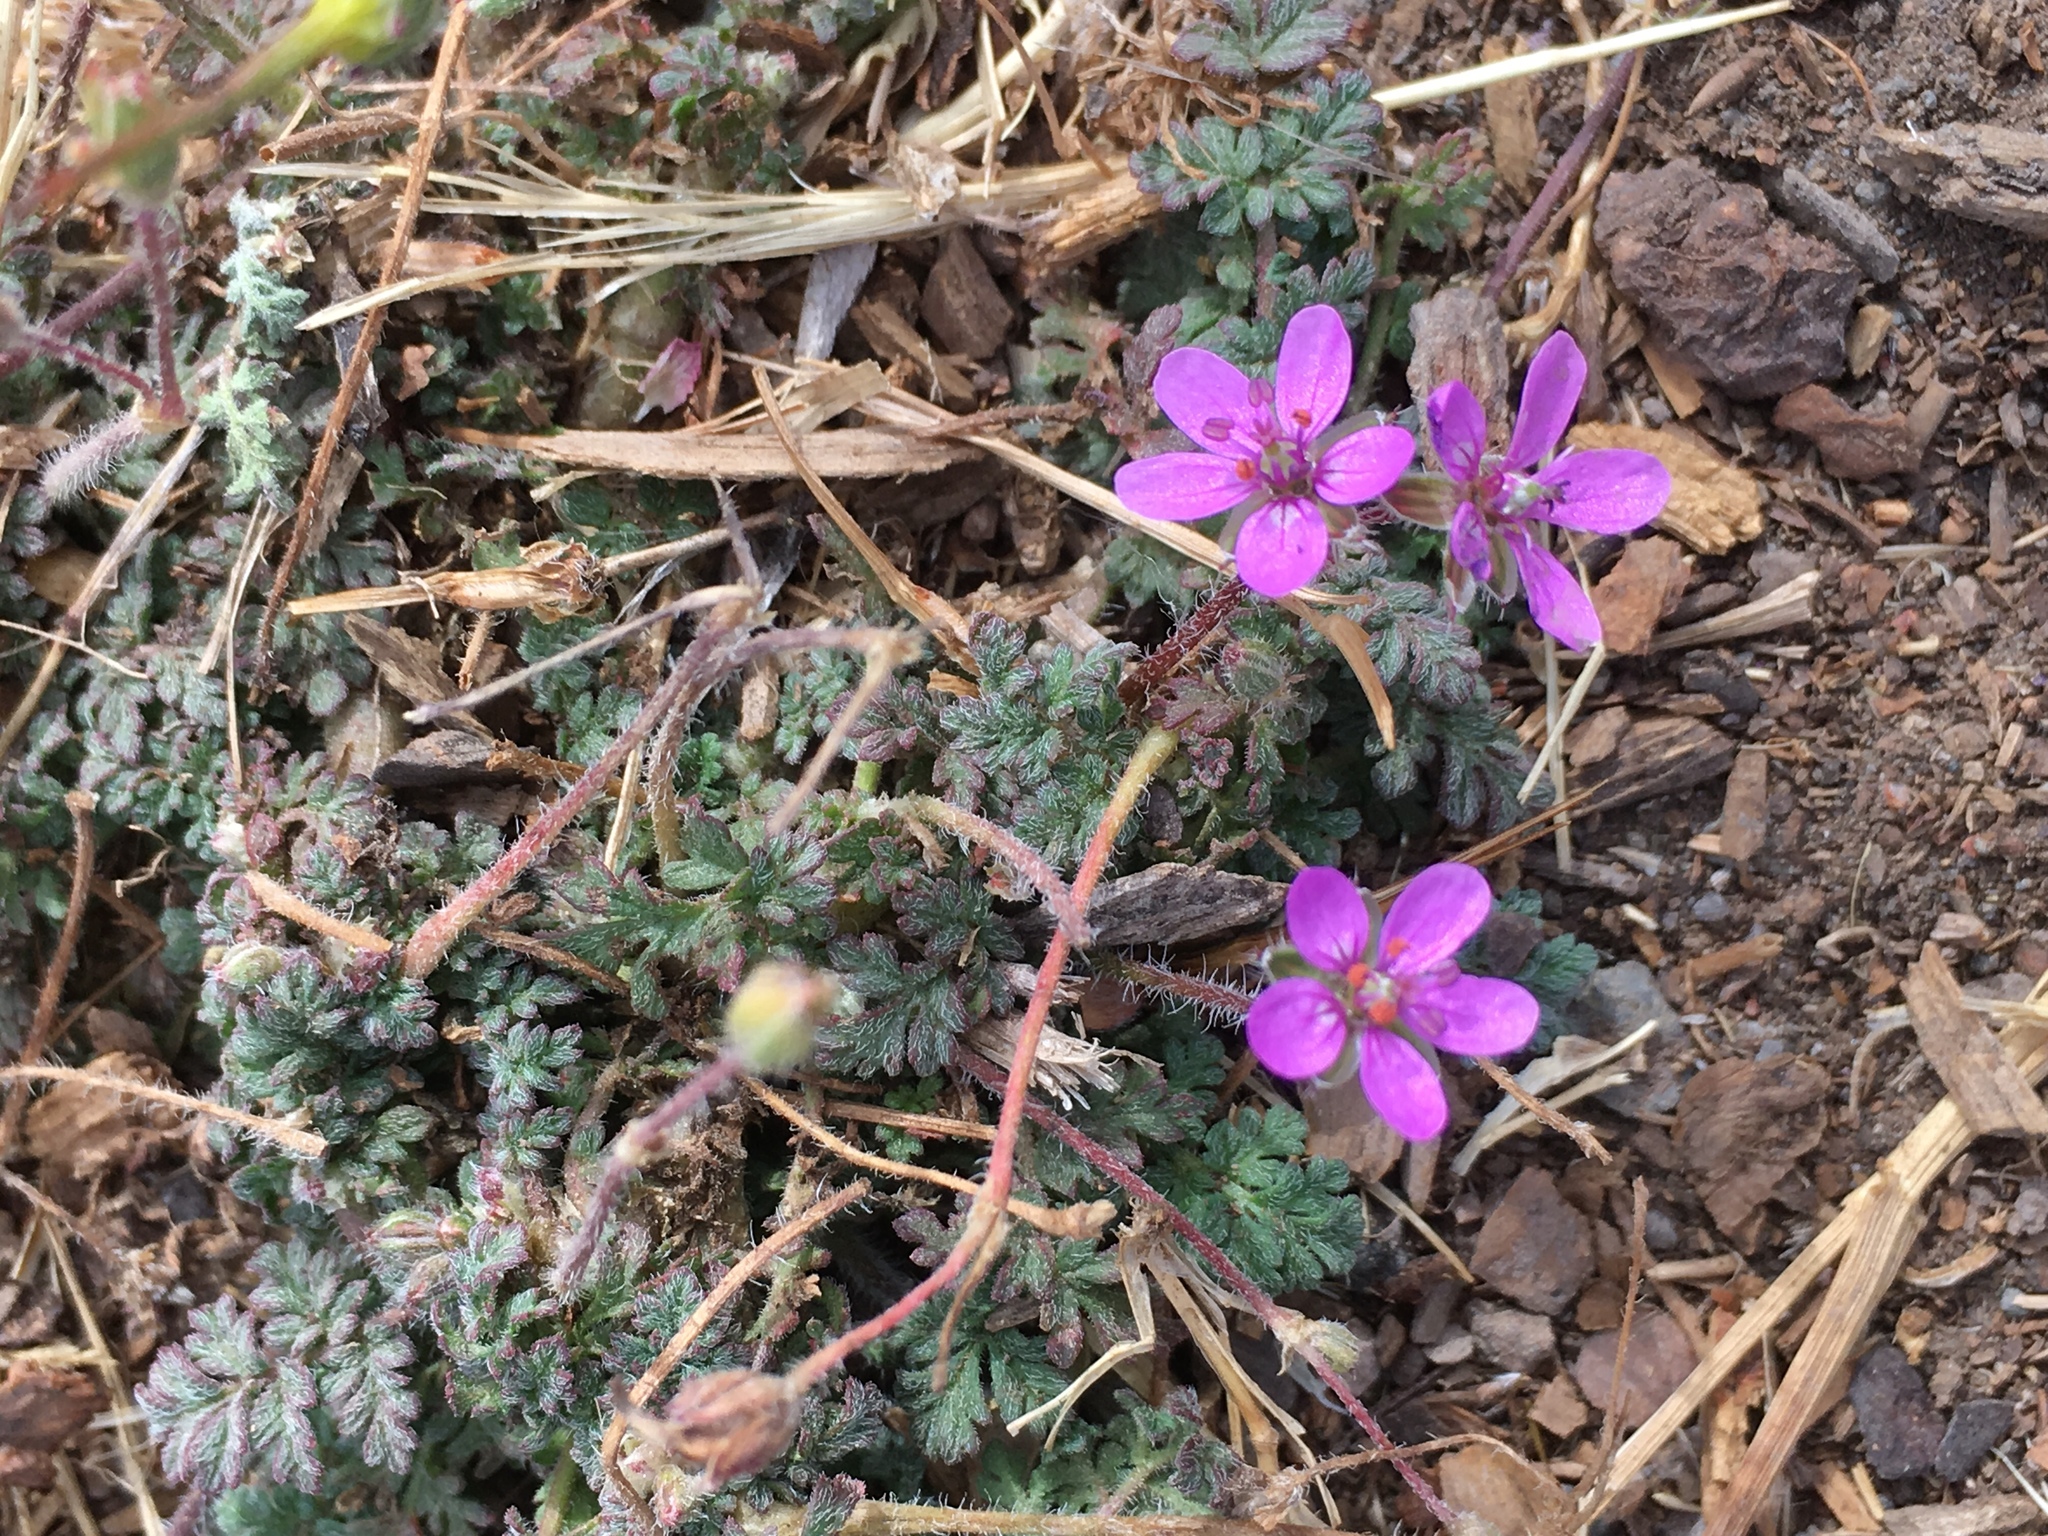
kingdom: Plantae
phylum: Tracheophyta
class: Magnoliopsida
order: Geraniales
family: Geraniaceae
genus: Erodium
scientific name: Erodium cicutarium
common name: Common stork's-bill
